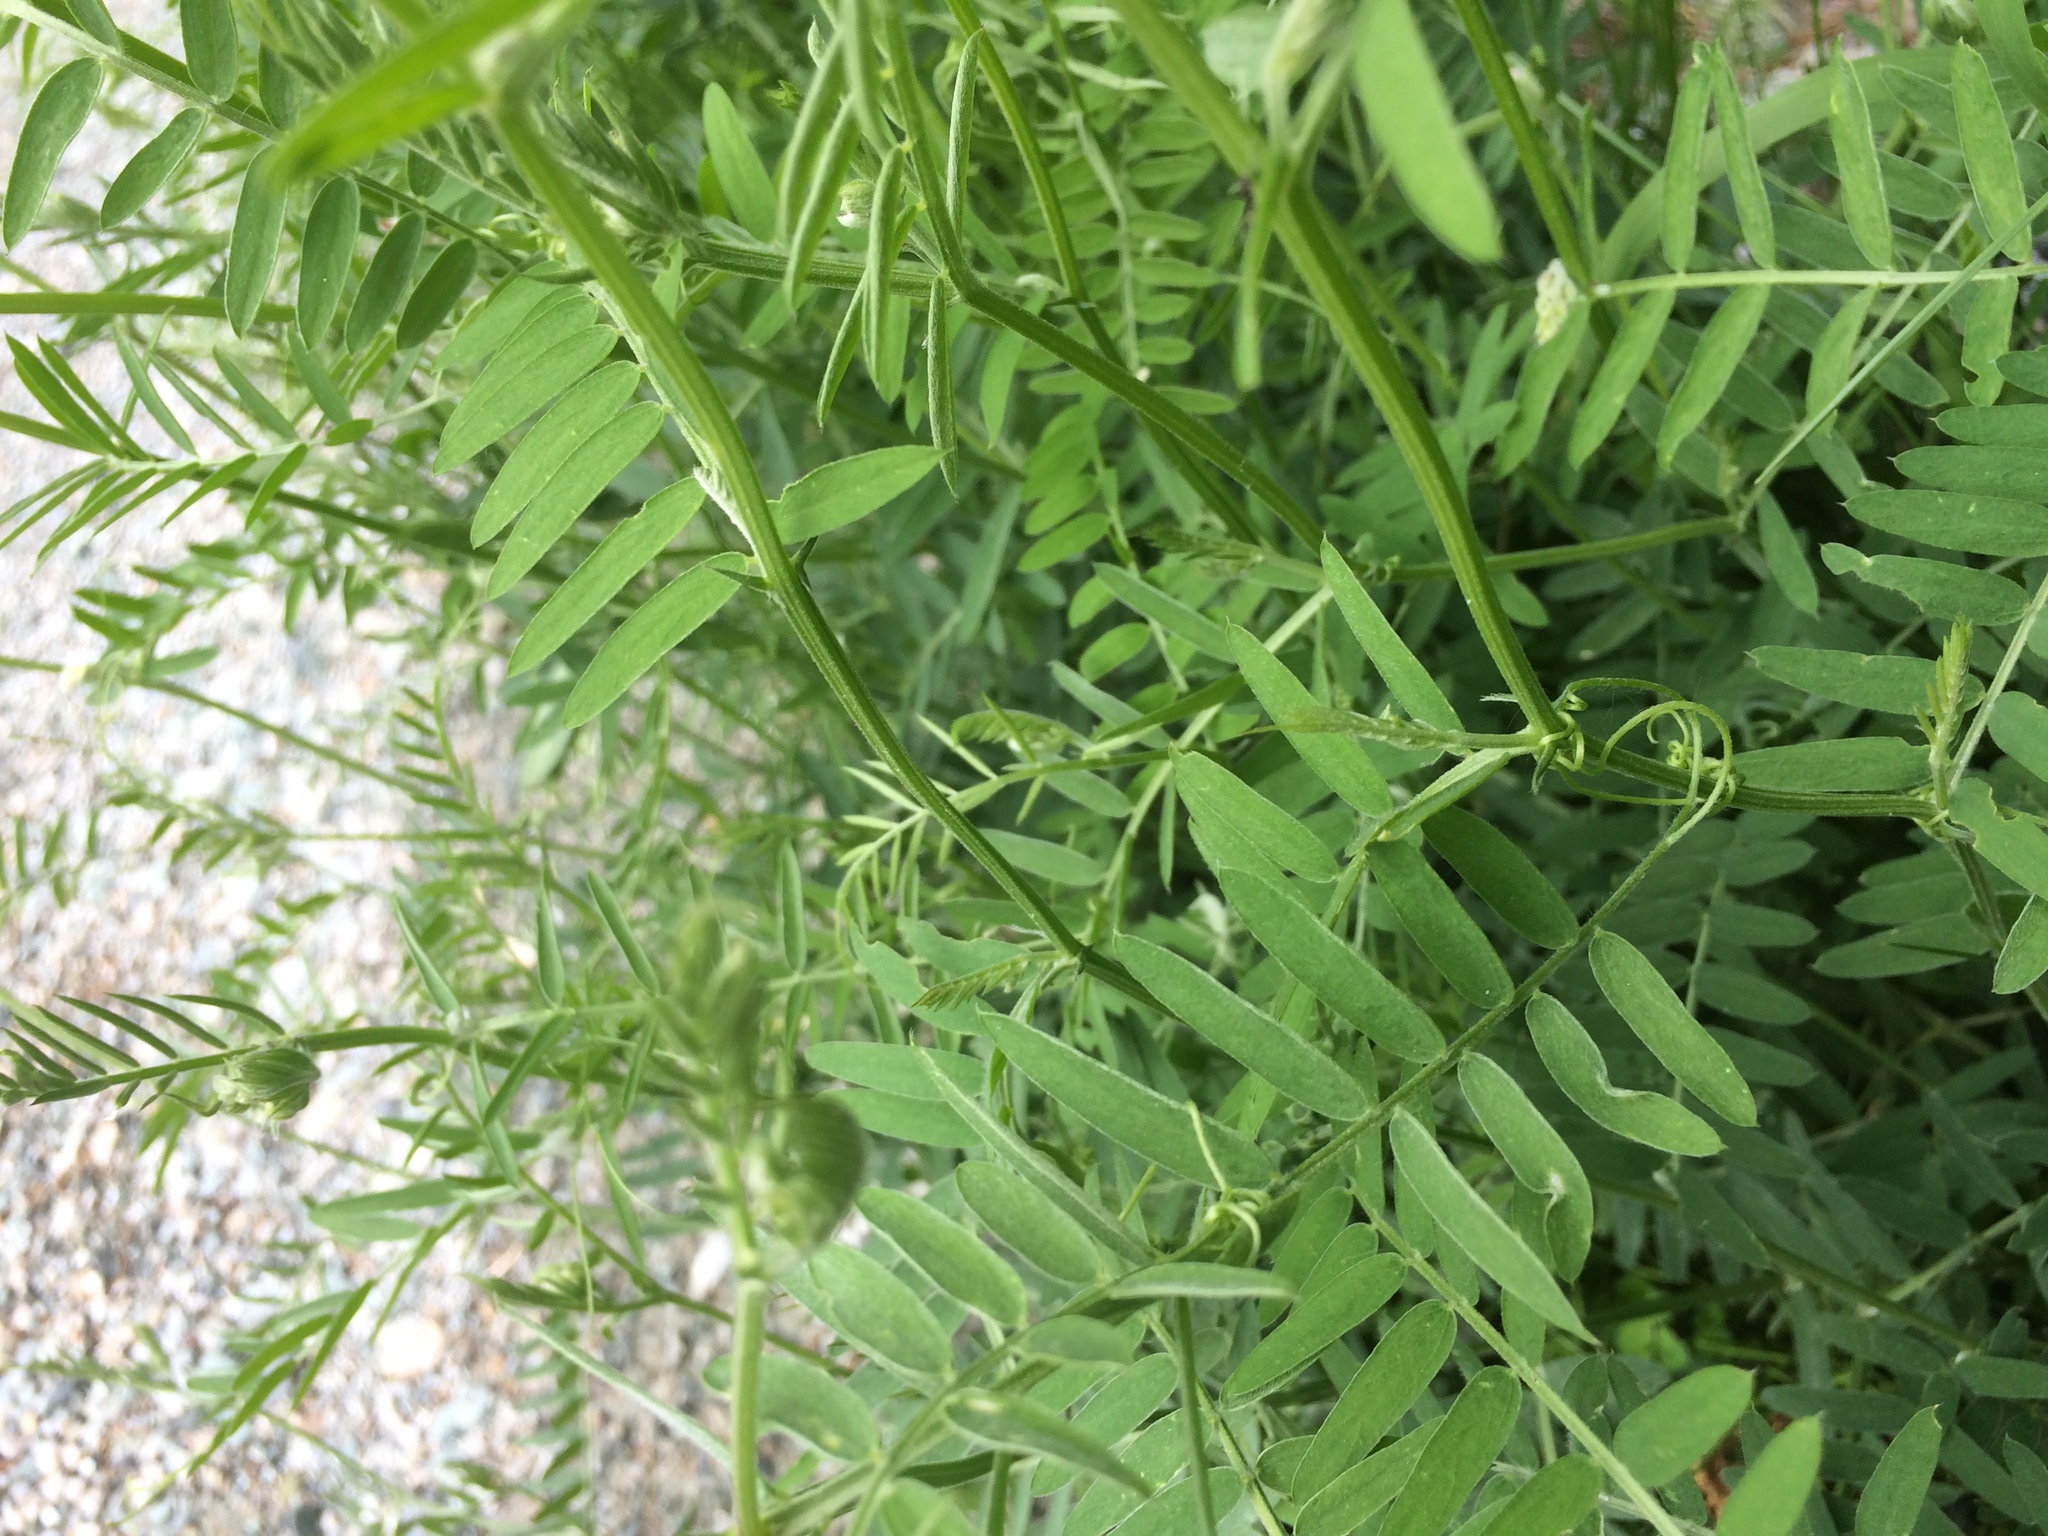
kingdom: Plantae
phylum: Tracheophyta
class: Magnoliopsida
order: Fabales
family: Fabaceae
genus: Vicia
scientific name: Vicia cracca
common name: Bird vetch
